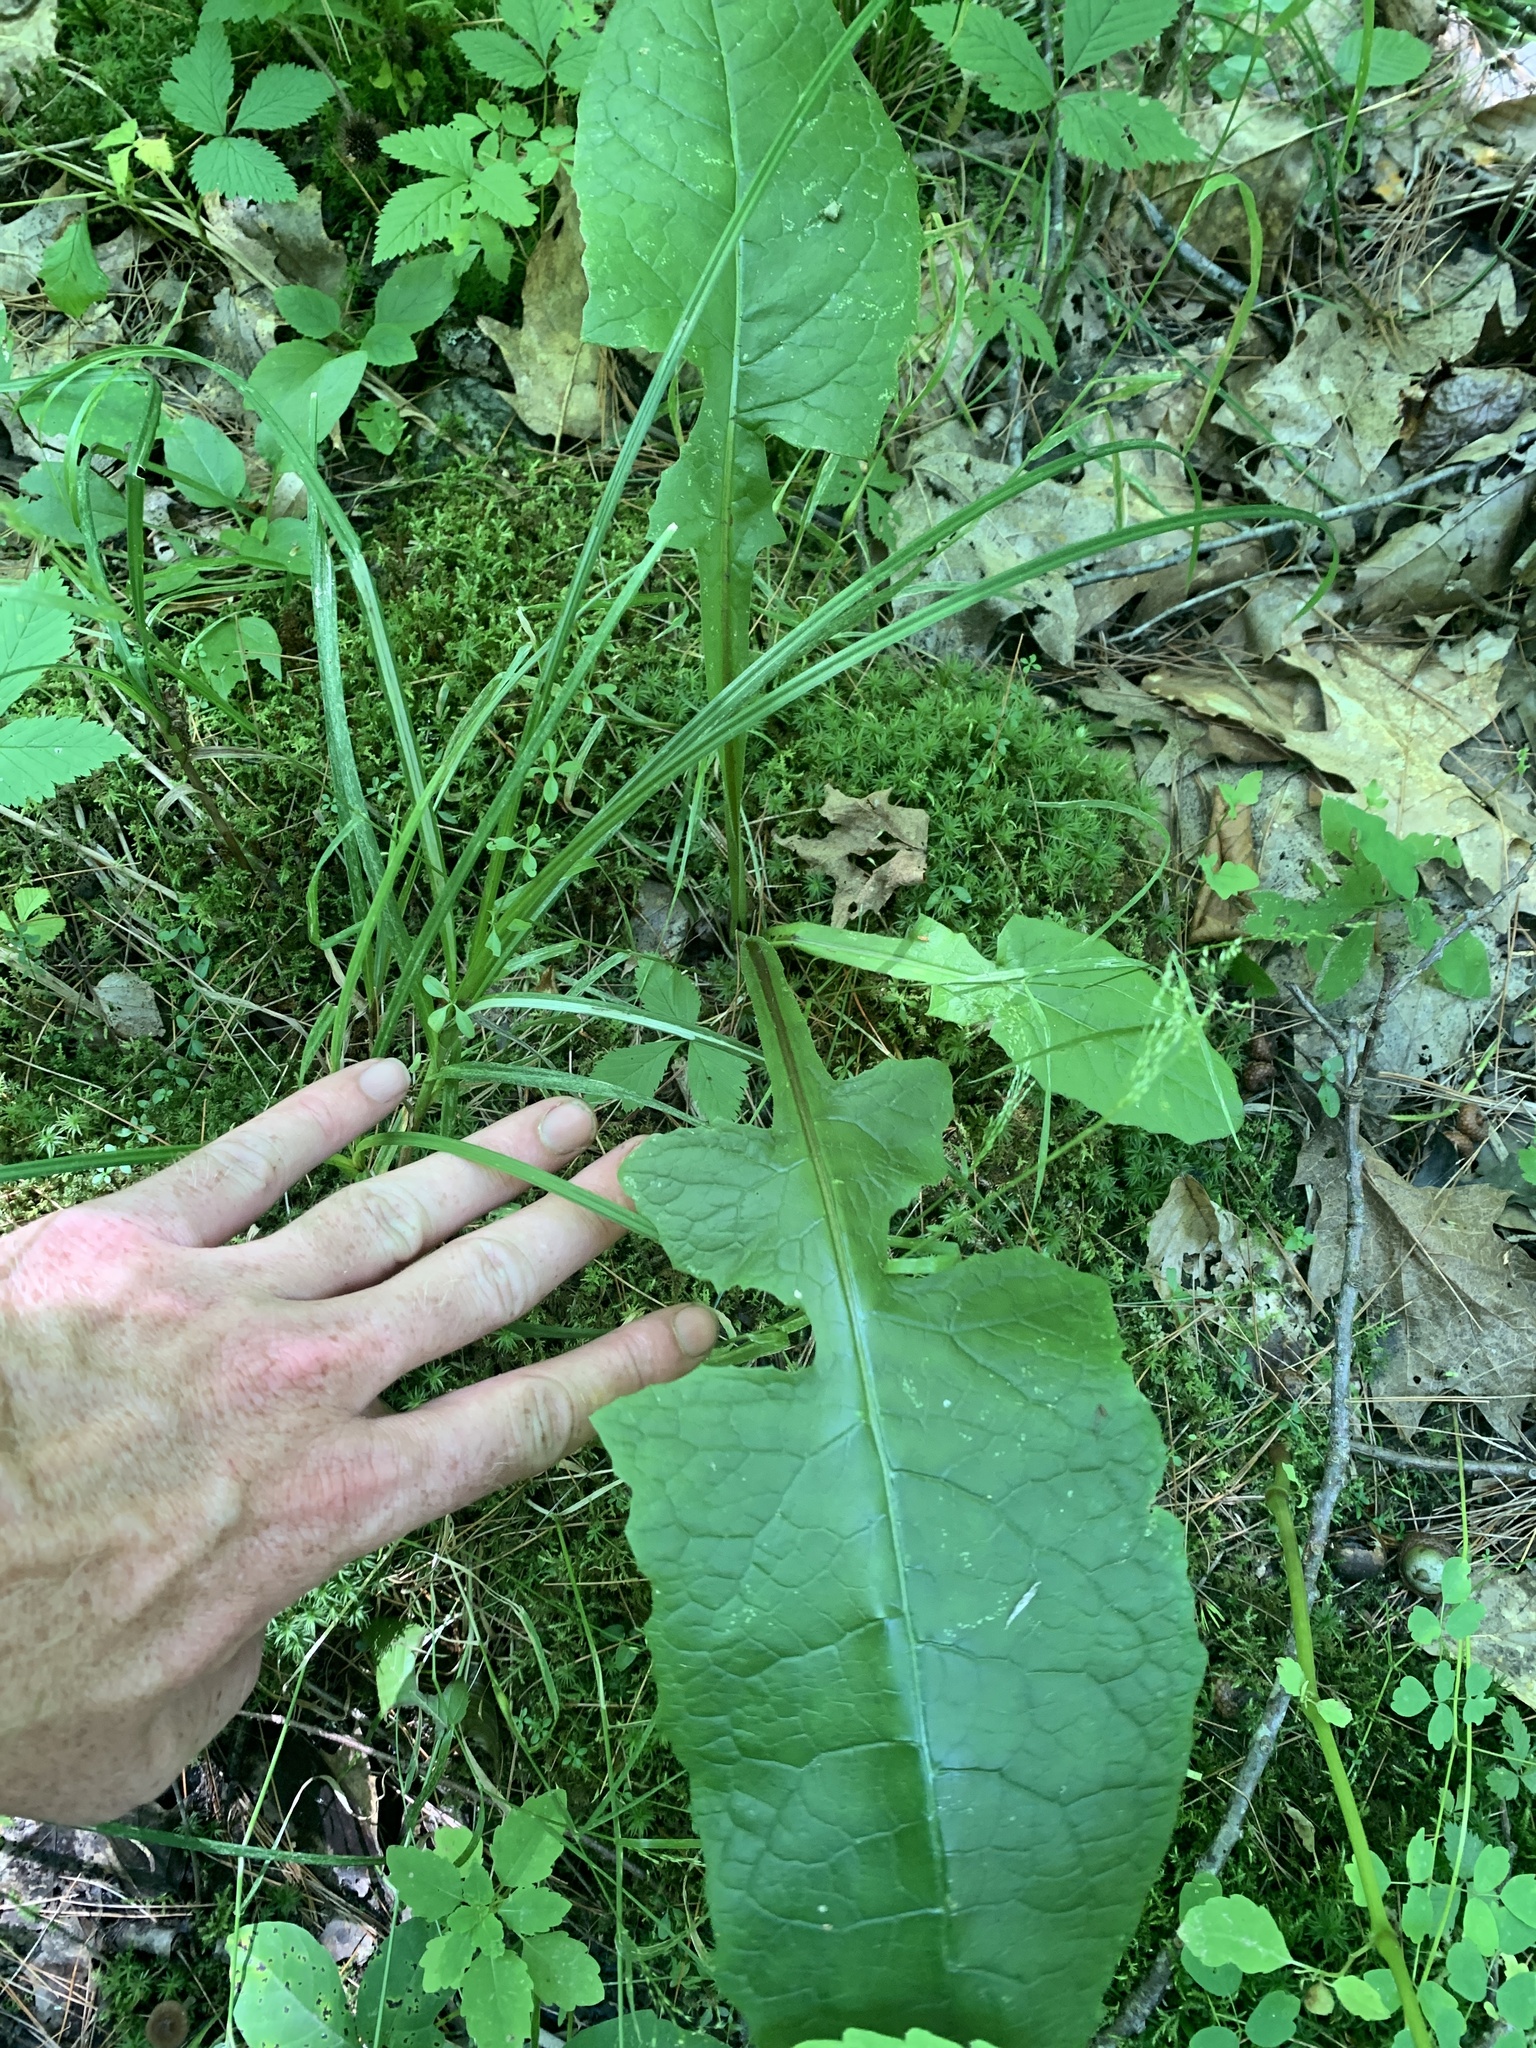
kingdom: Plantae
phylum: Tracheophyta
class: Magnoliopsida
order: Asterales
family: Asteraceae
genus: Lactuca
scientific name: Lactuca biennis
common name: Blue wood lettuce
